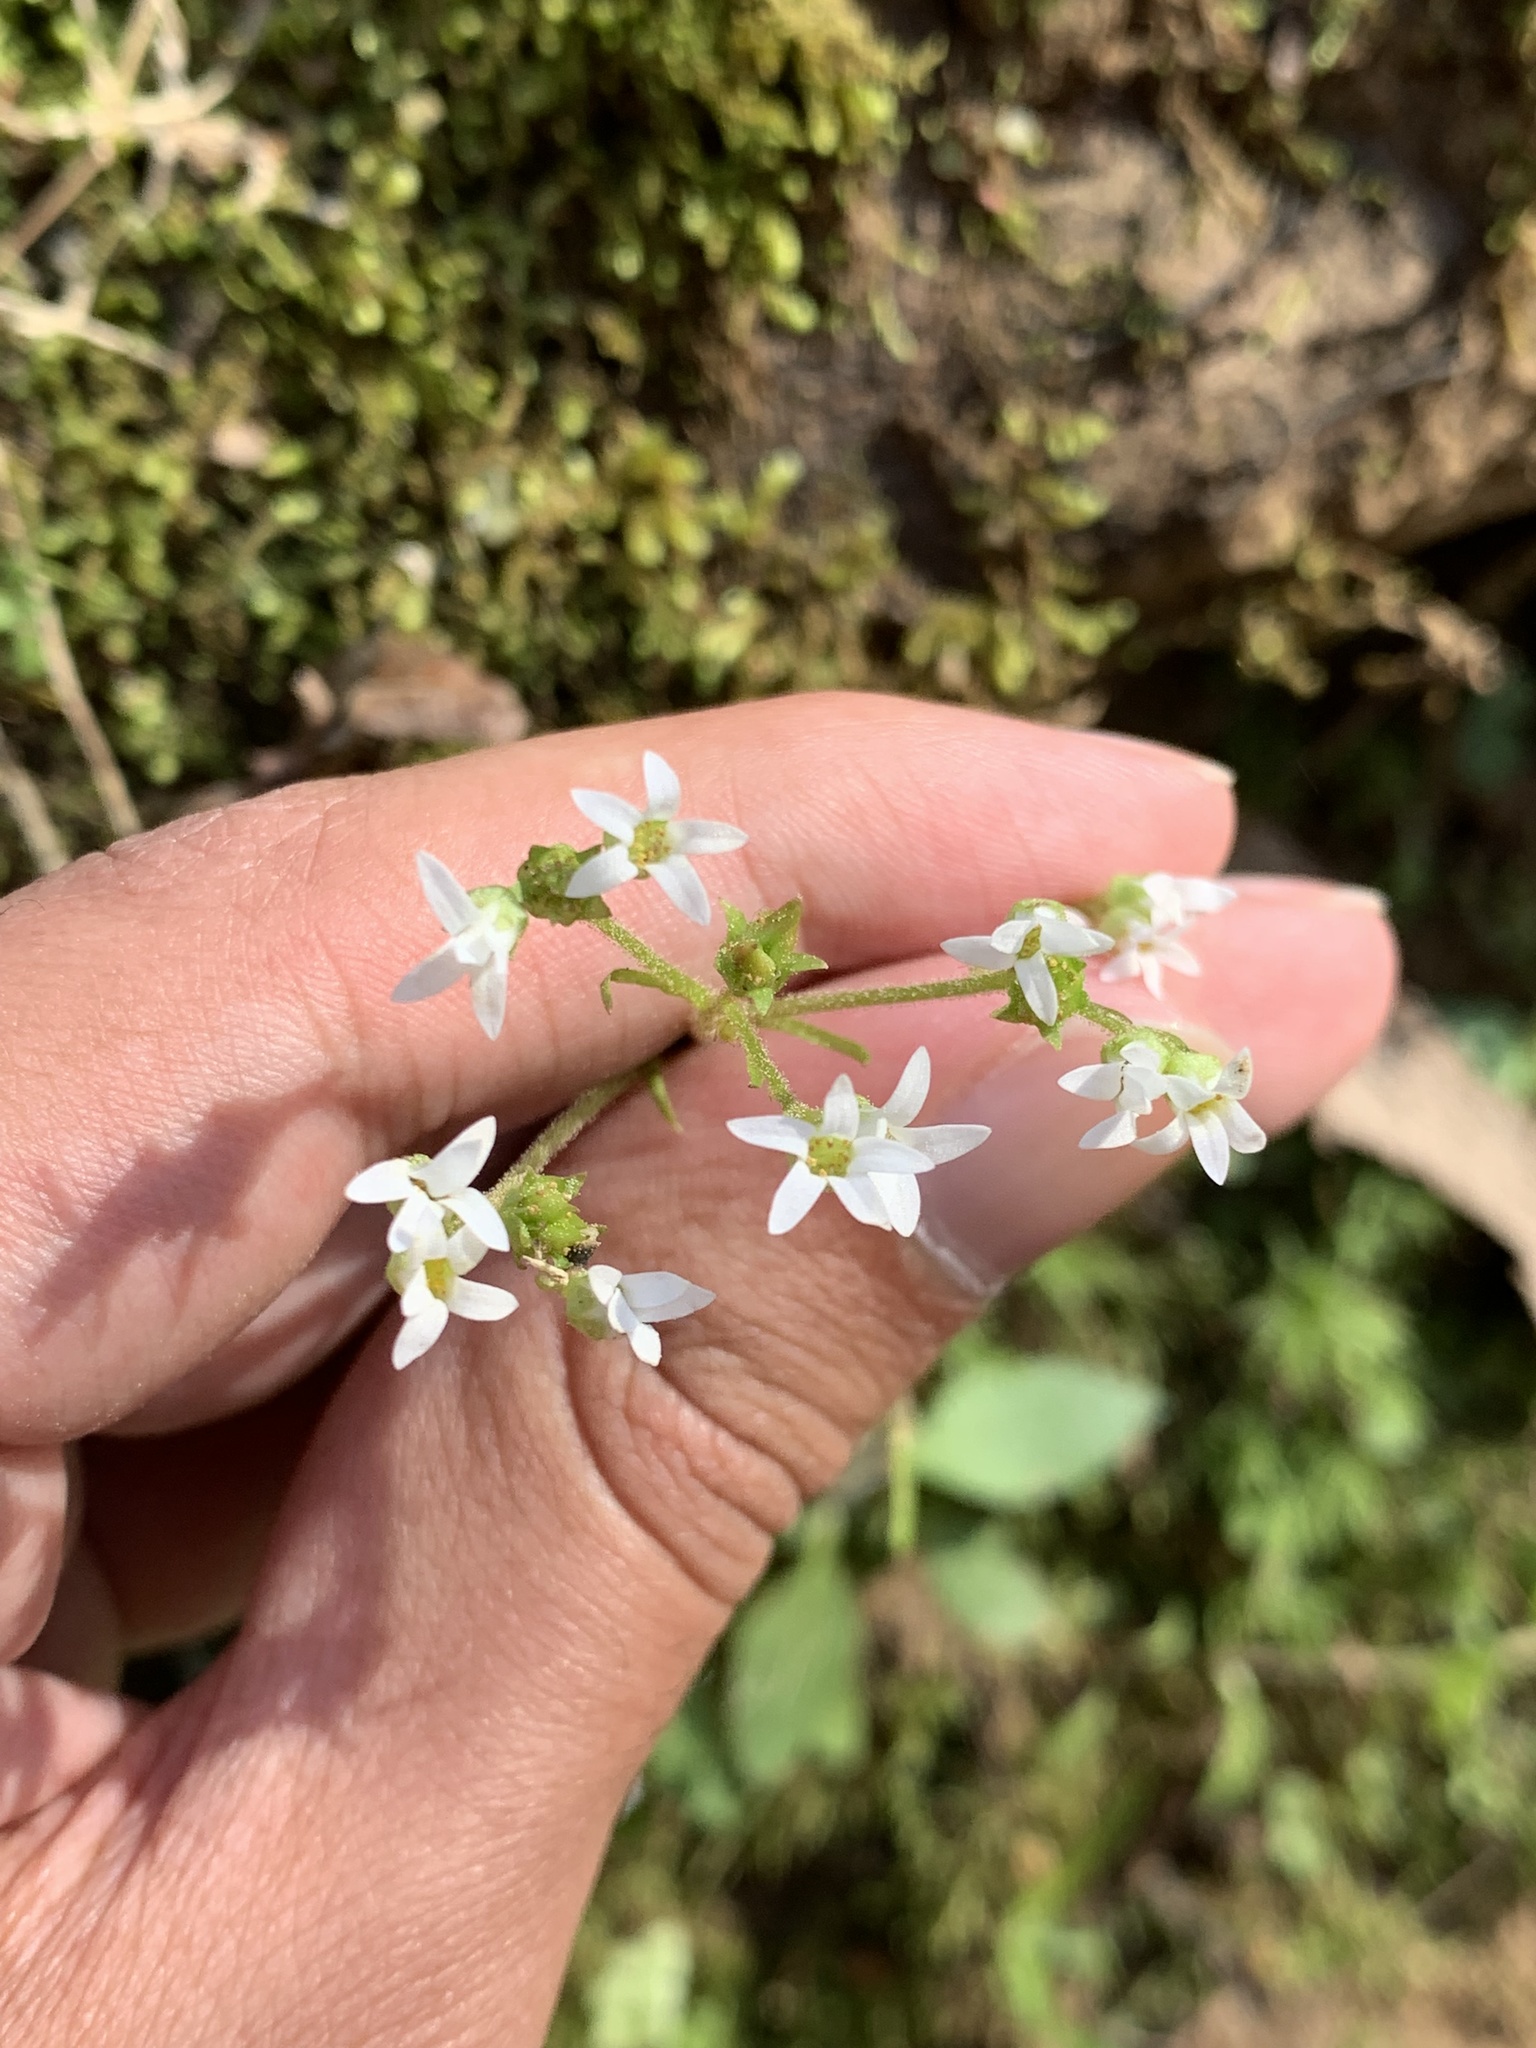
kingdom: Plantae
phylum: Tracheophyta
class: Magnoliopsida
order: Saxifragales
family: Saxifragaceae
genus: Micranthes
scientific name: Micranthes virginiensis
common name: Early saxifrage
